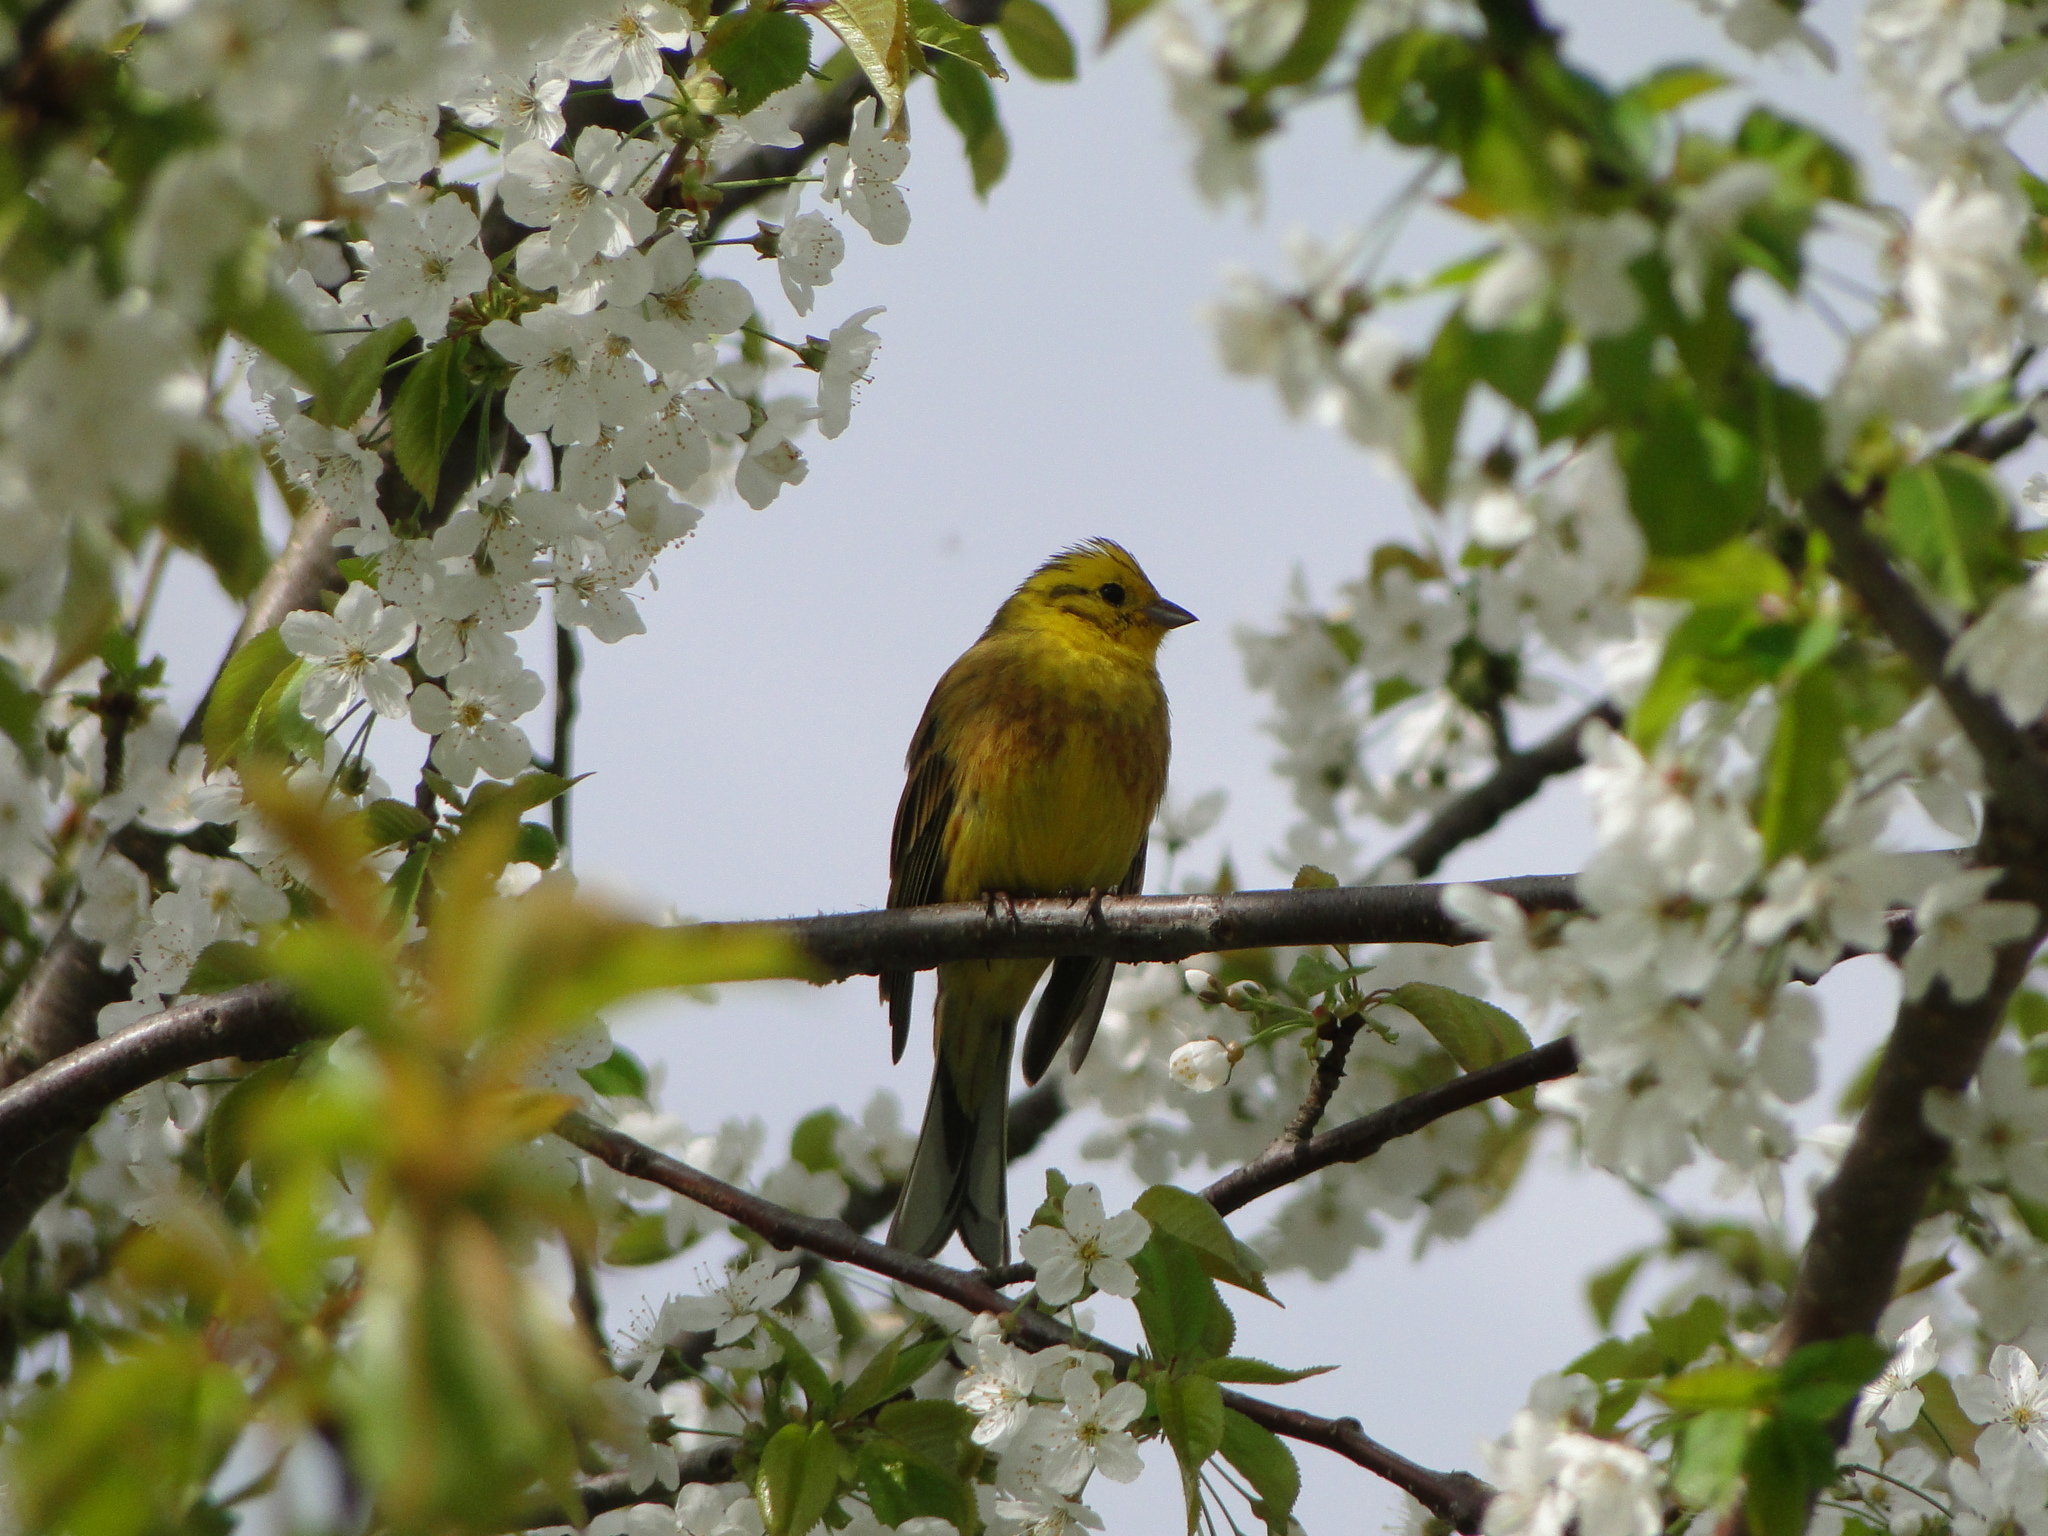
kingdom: Animalia
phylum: Chordata
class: Aves
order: Passeriformes
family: Emberizidae
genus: Emberiza
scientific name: Emberiza citrinella
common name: Yellowhammer
